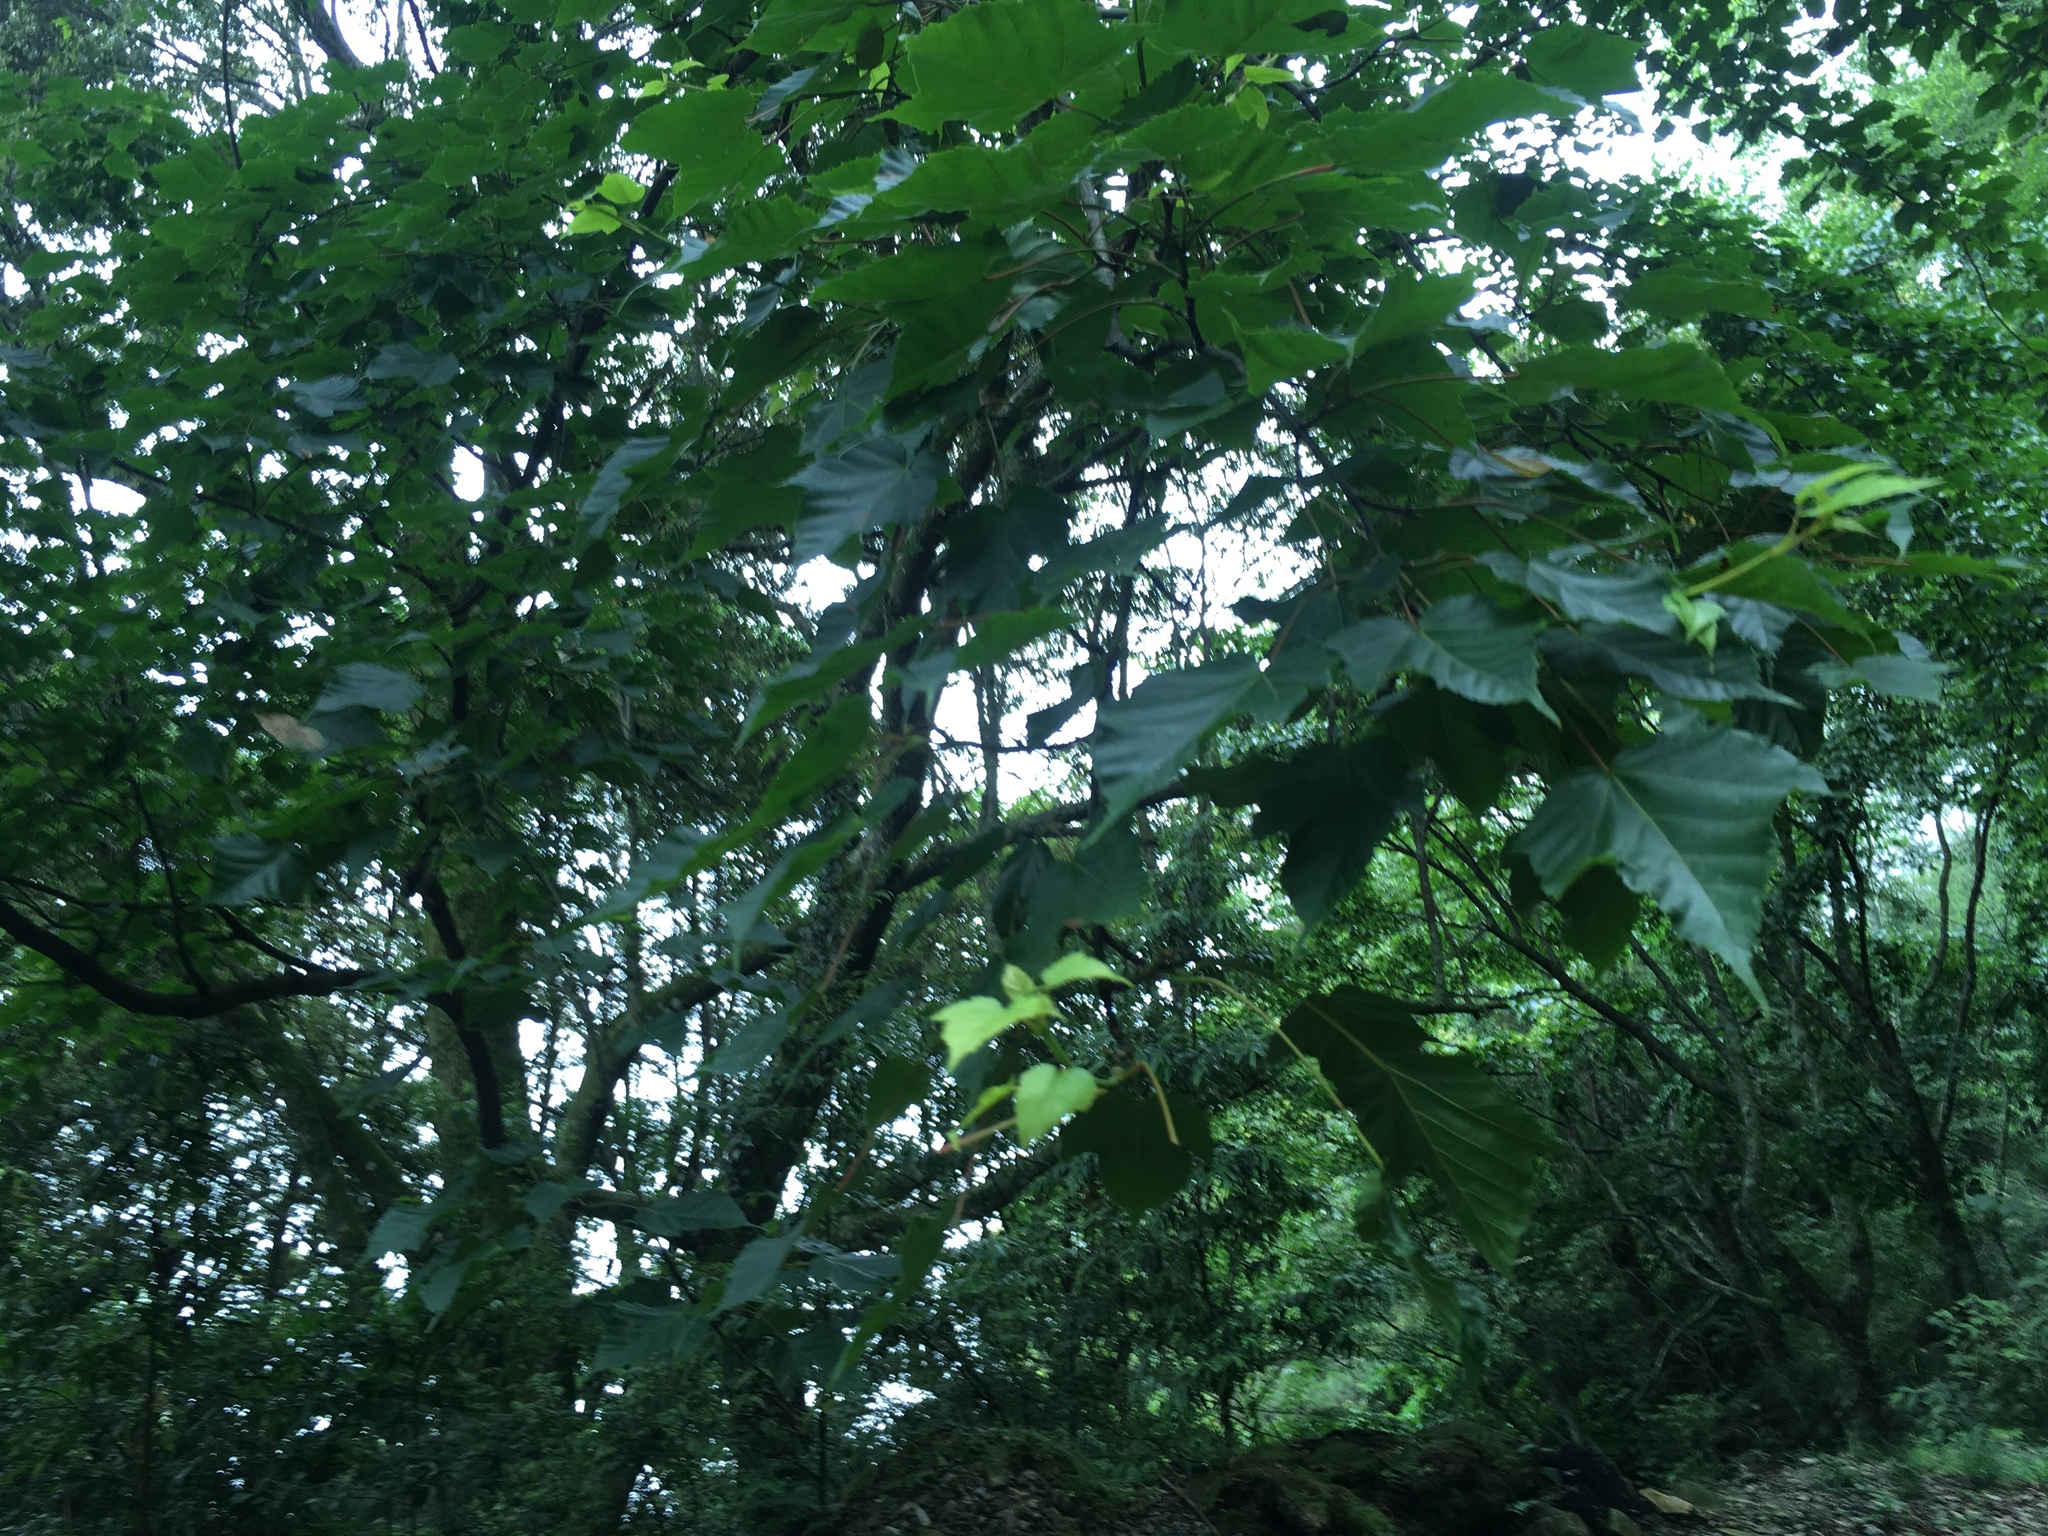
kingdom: Plantae
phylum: Tracheophyta
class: Magnoliopsida
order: Sapindales
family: Sapindaceae
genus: Acer
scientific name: Acer caudatifolium
